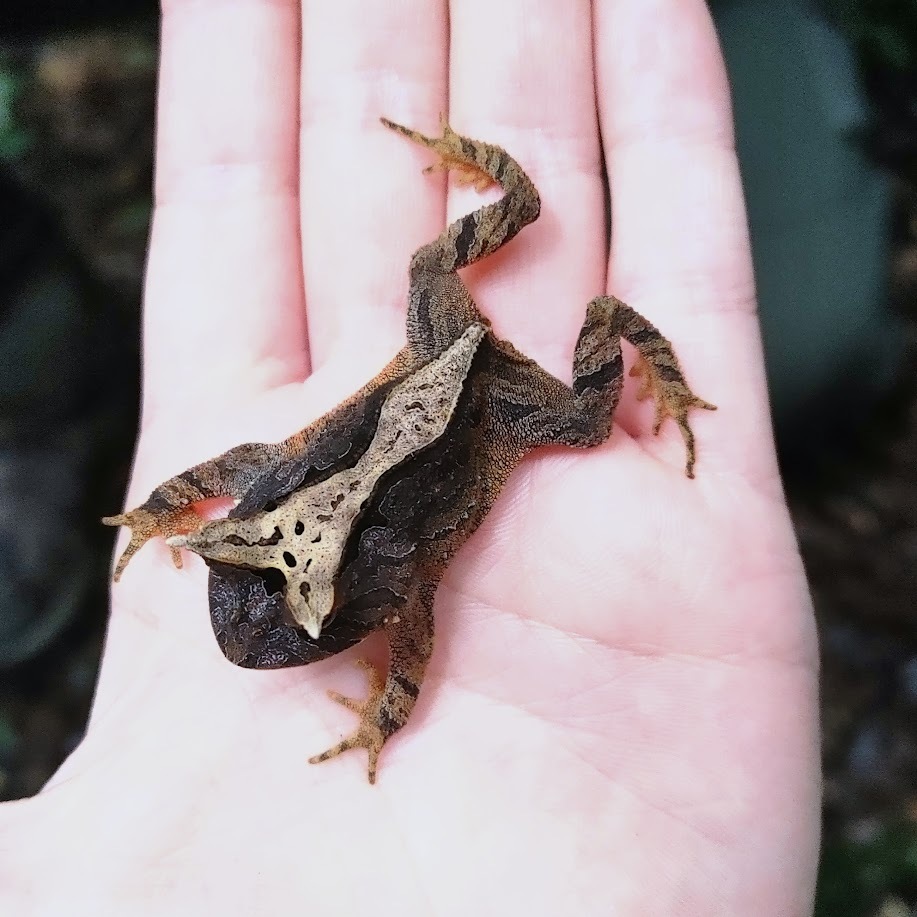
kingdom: Animalia
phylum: Chordata
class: Amphibia
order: Anura
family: Odontophrynidae
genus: Proceratophrys
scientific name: Proceratophrys boiei
